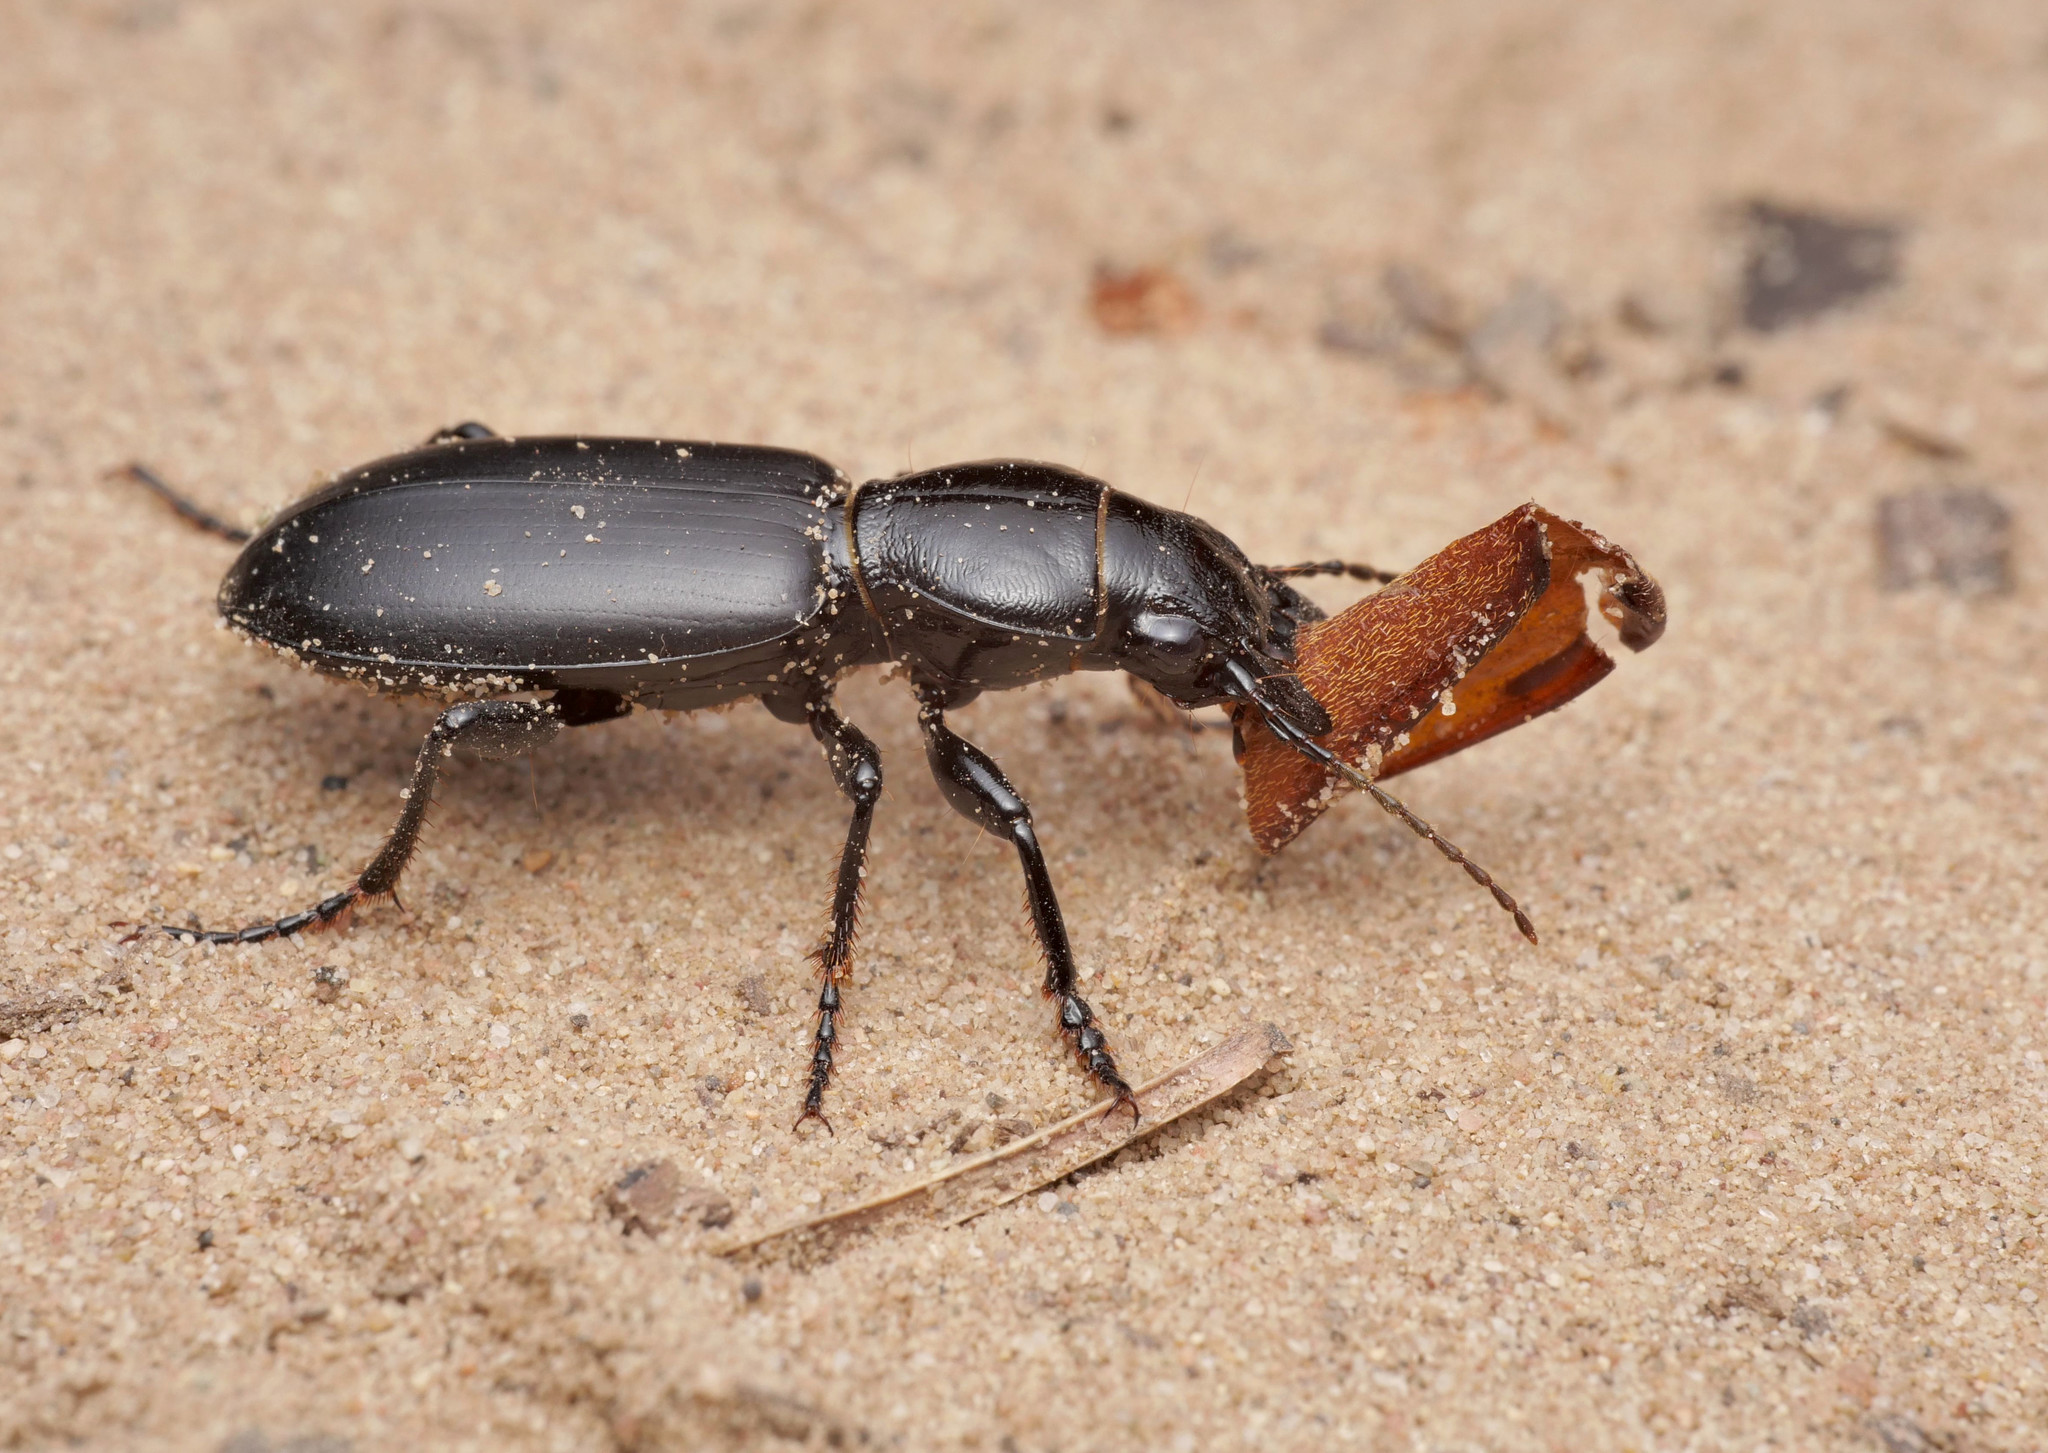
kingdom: Animalia
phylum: Arthropoda
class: Insecta
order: Coleoptera
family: Carabidae
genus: Broscus
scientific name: Broscus cephalotes
